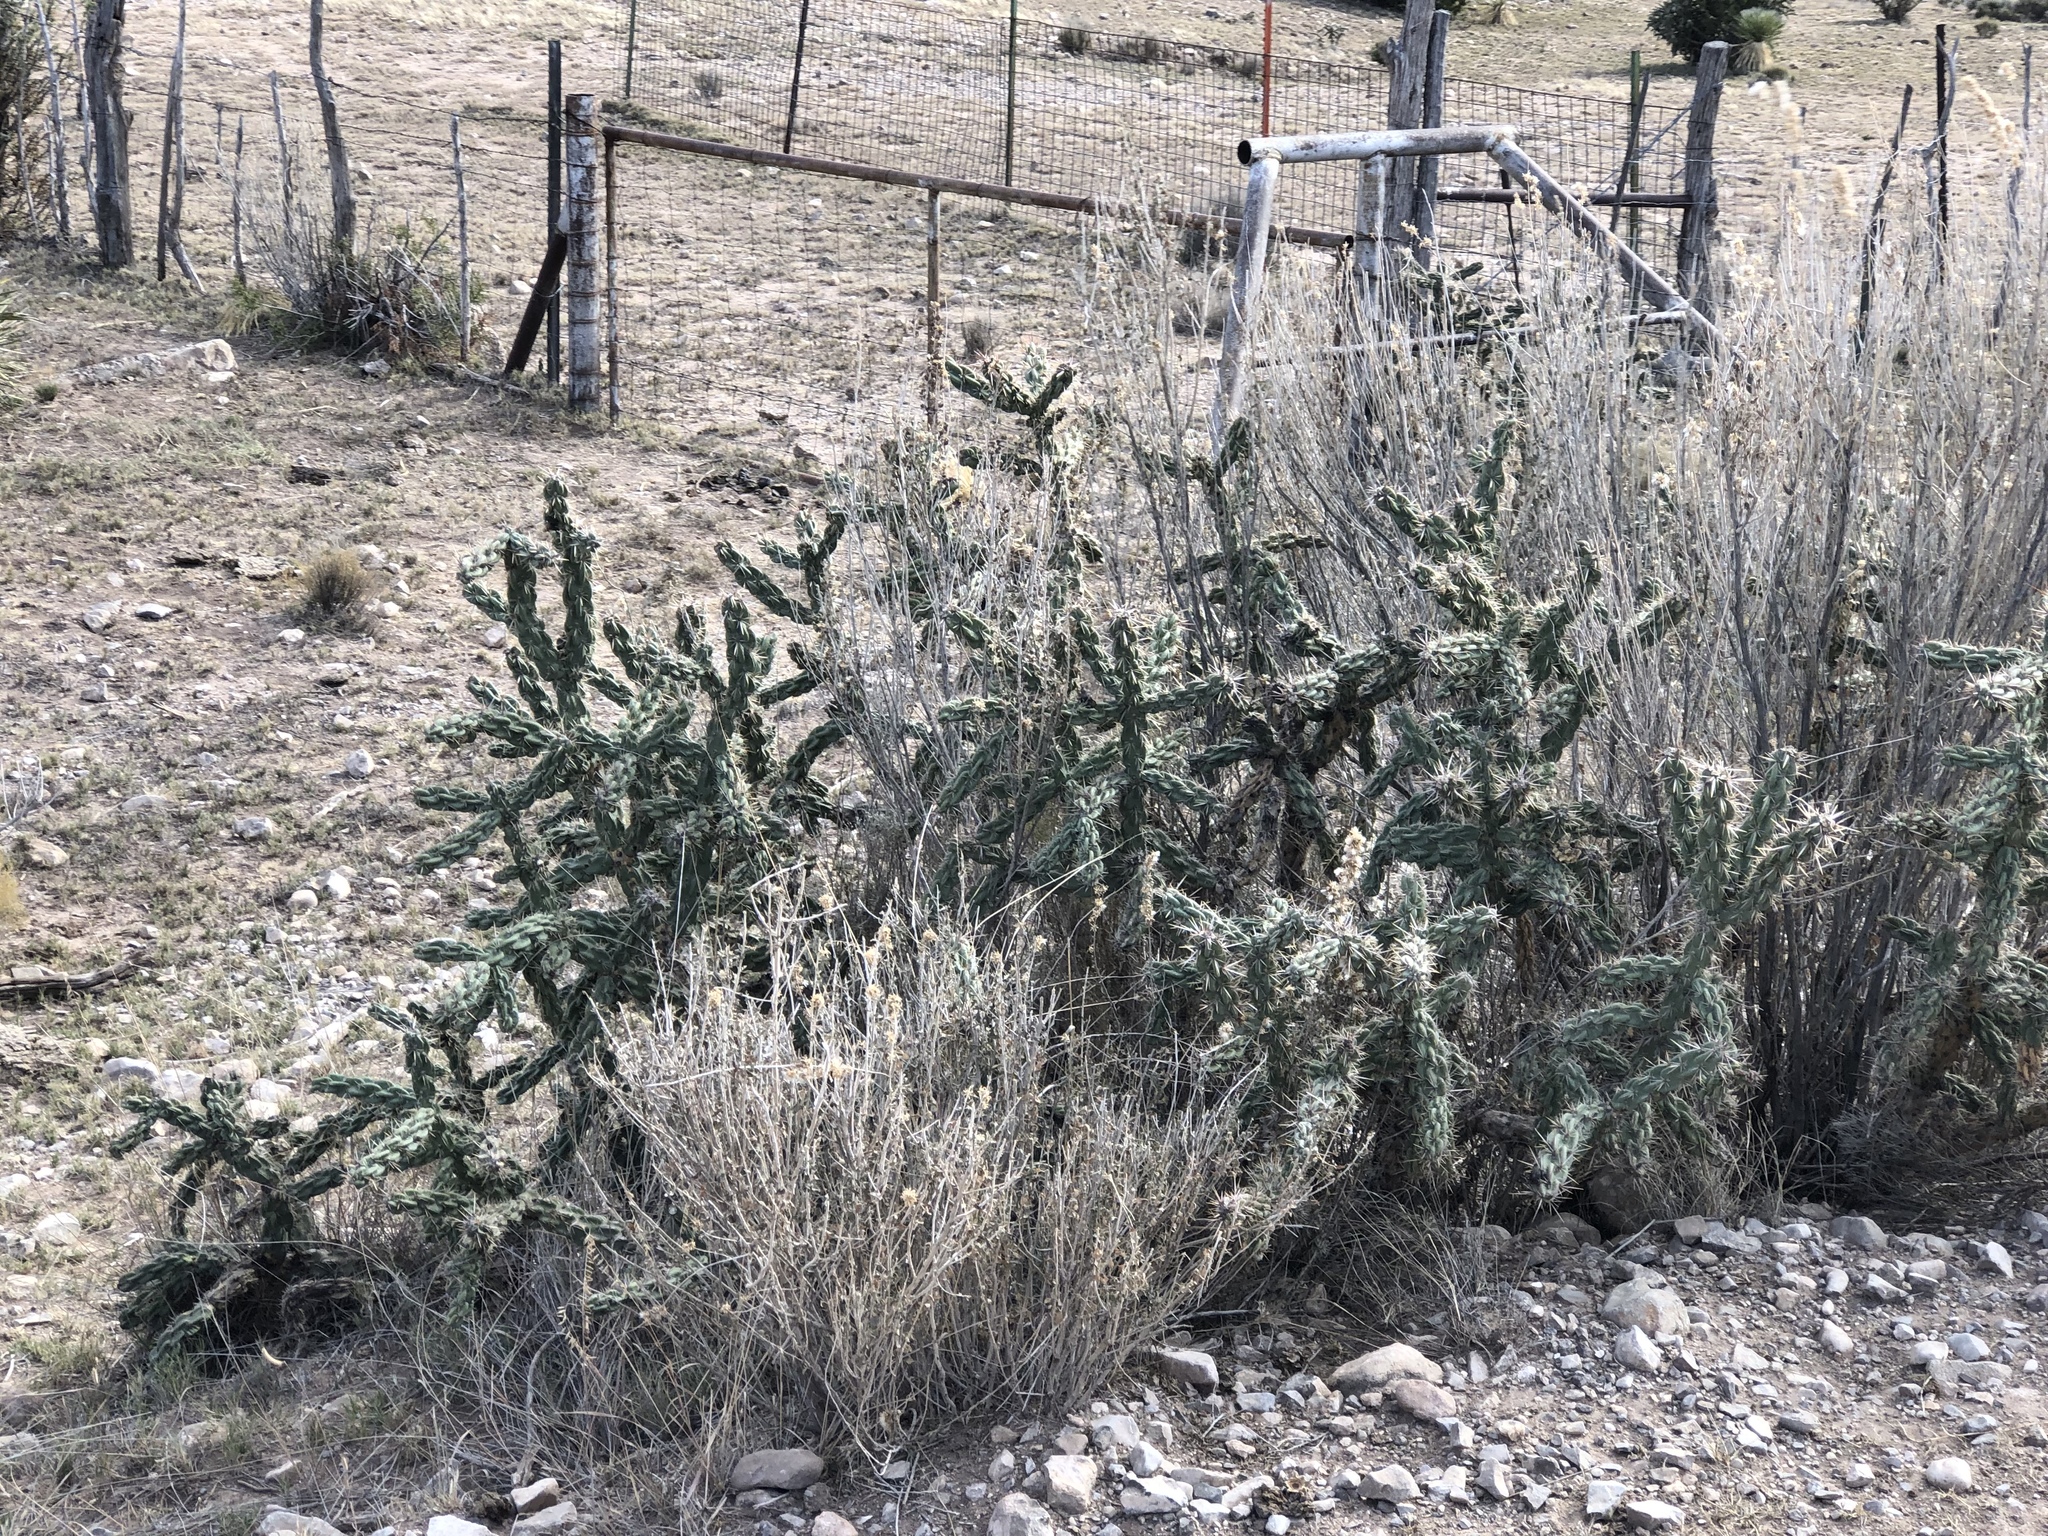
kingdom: Plantae
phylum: Tracheophyta
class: Magnoliopsida
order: Caryophyllales
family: Cactaceae
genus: Cylindropuntia
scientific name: Cylindropuntia imbricata
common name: Candelabrum cactus
